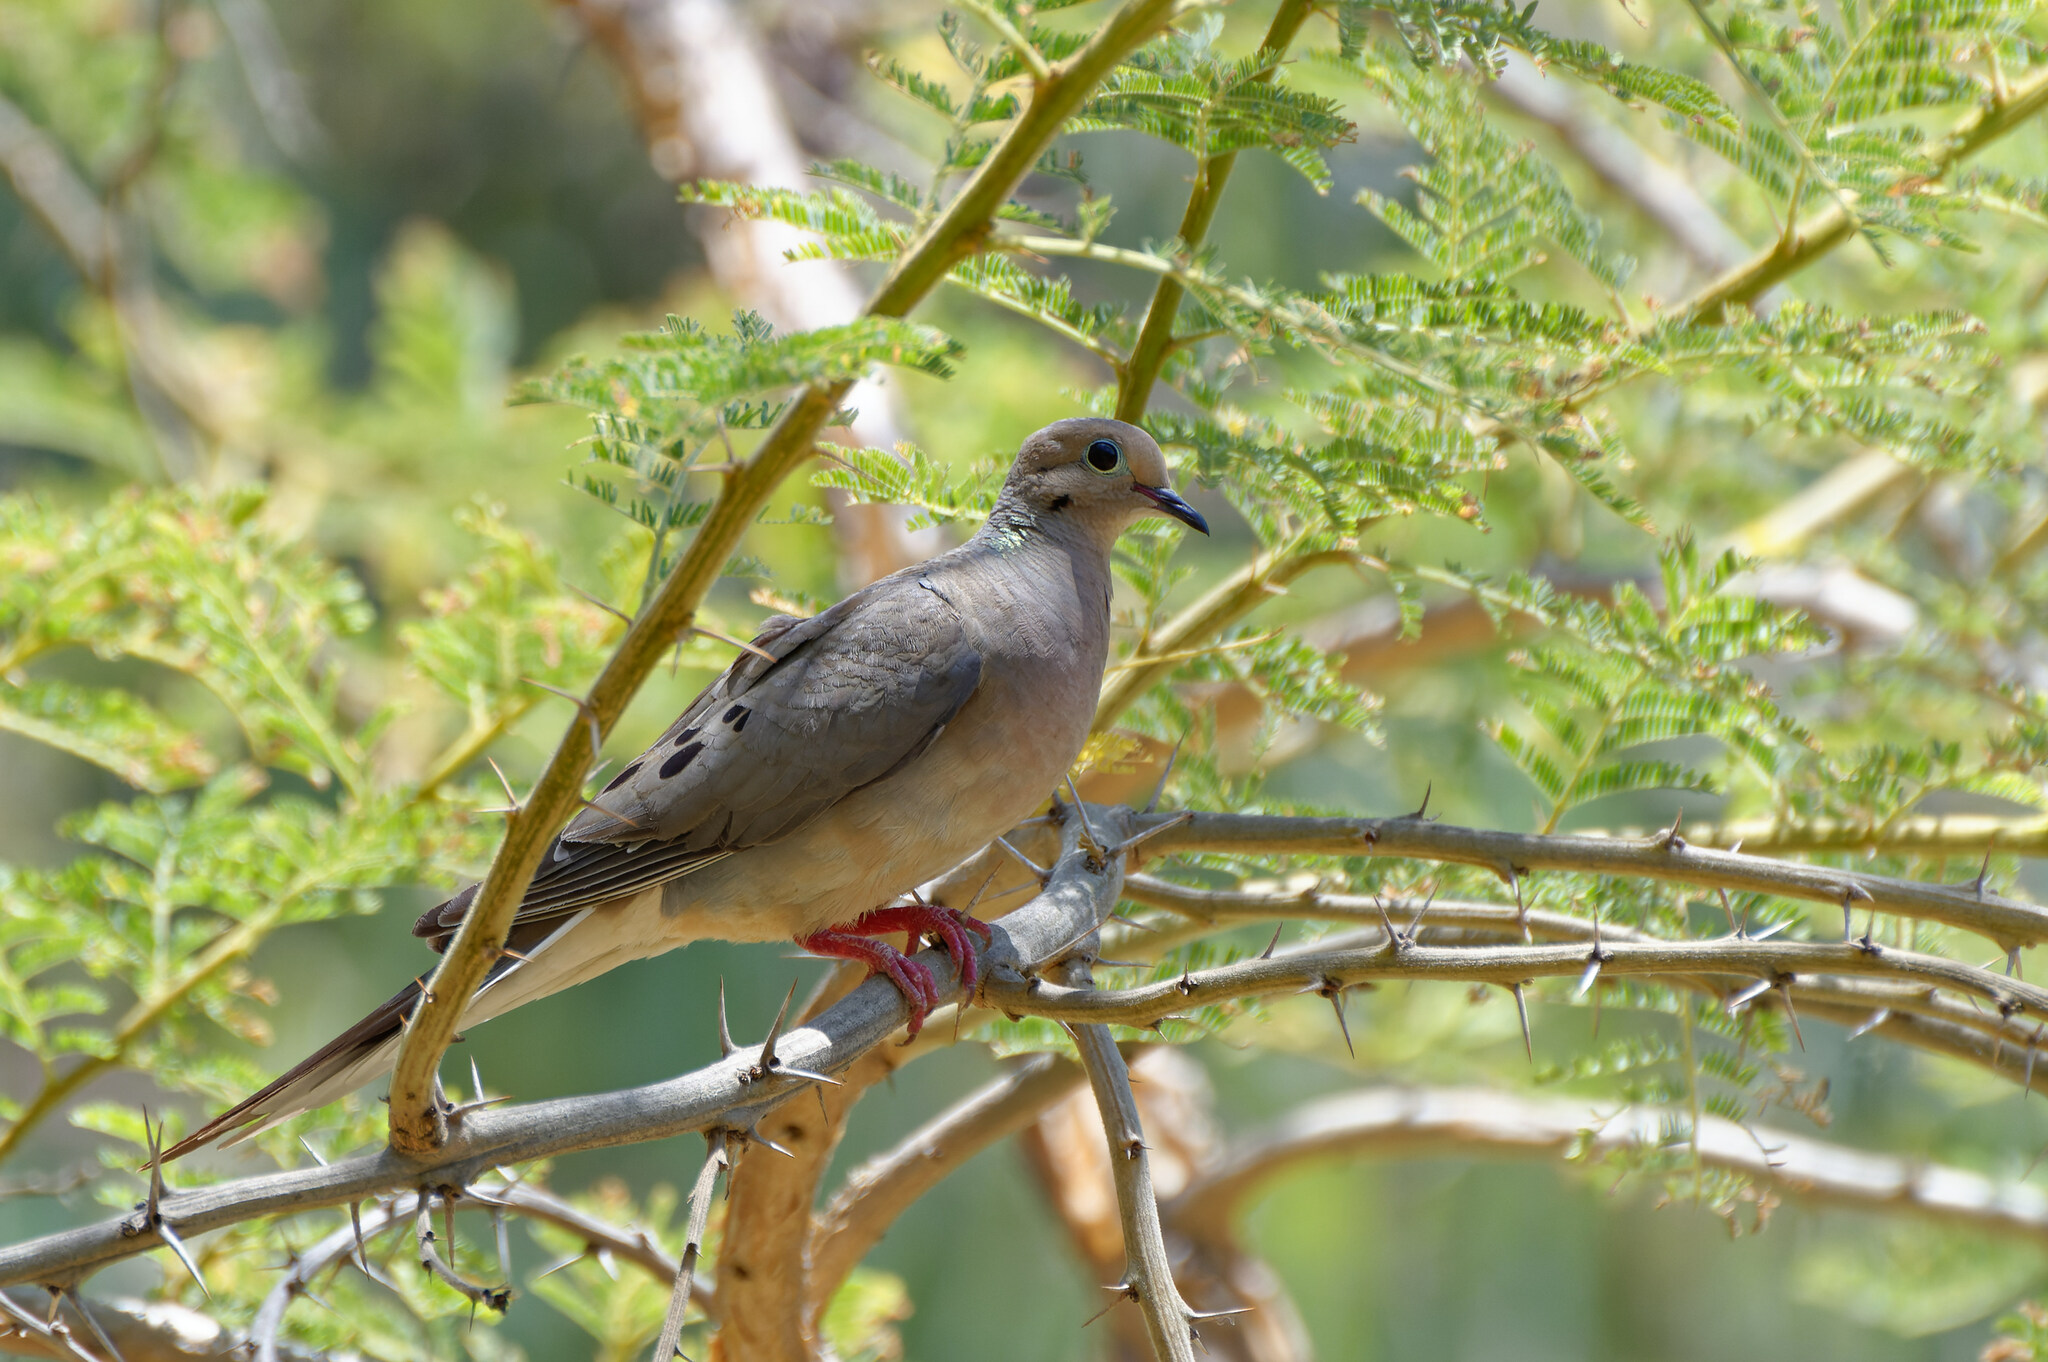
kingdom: Animalia
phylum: Chordata
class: Aves
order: Columbiformes
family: Columbidae
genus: Zenaida
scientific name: Zenaida macroura
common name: Mourning dove
